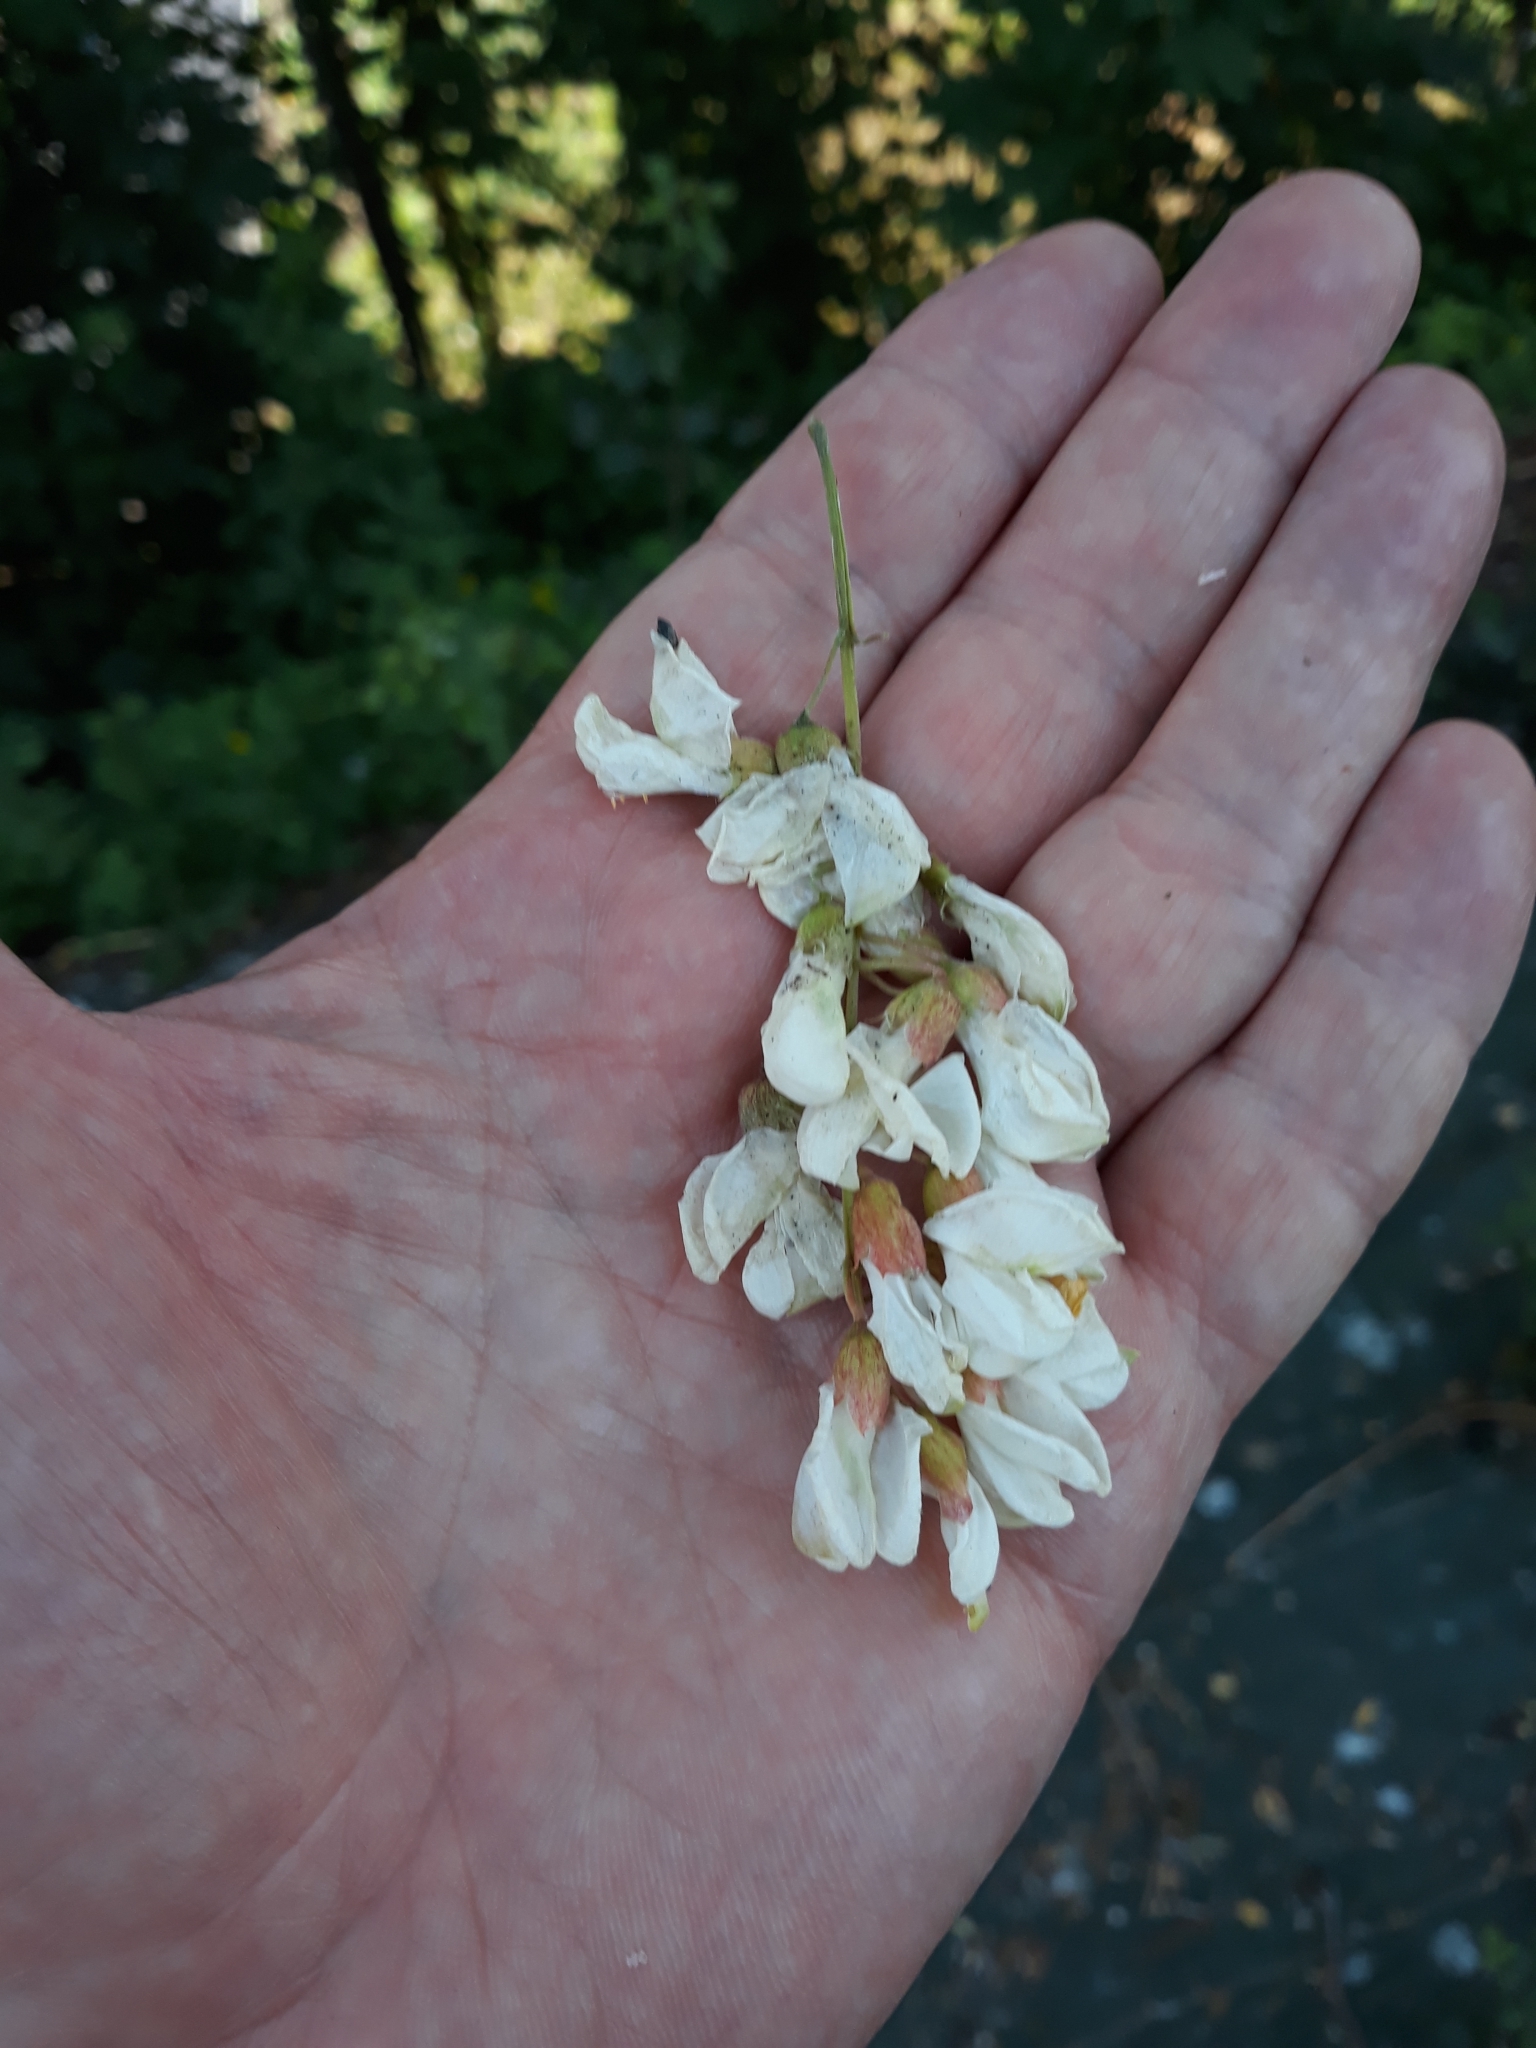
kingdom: Plantae
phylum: Tracheophyta
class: Magnoliopsida
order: Fabales
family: Fabaceae
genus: Robinia
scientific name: Robinia pseudoacacia
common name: Black locust
